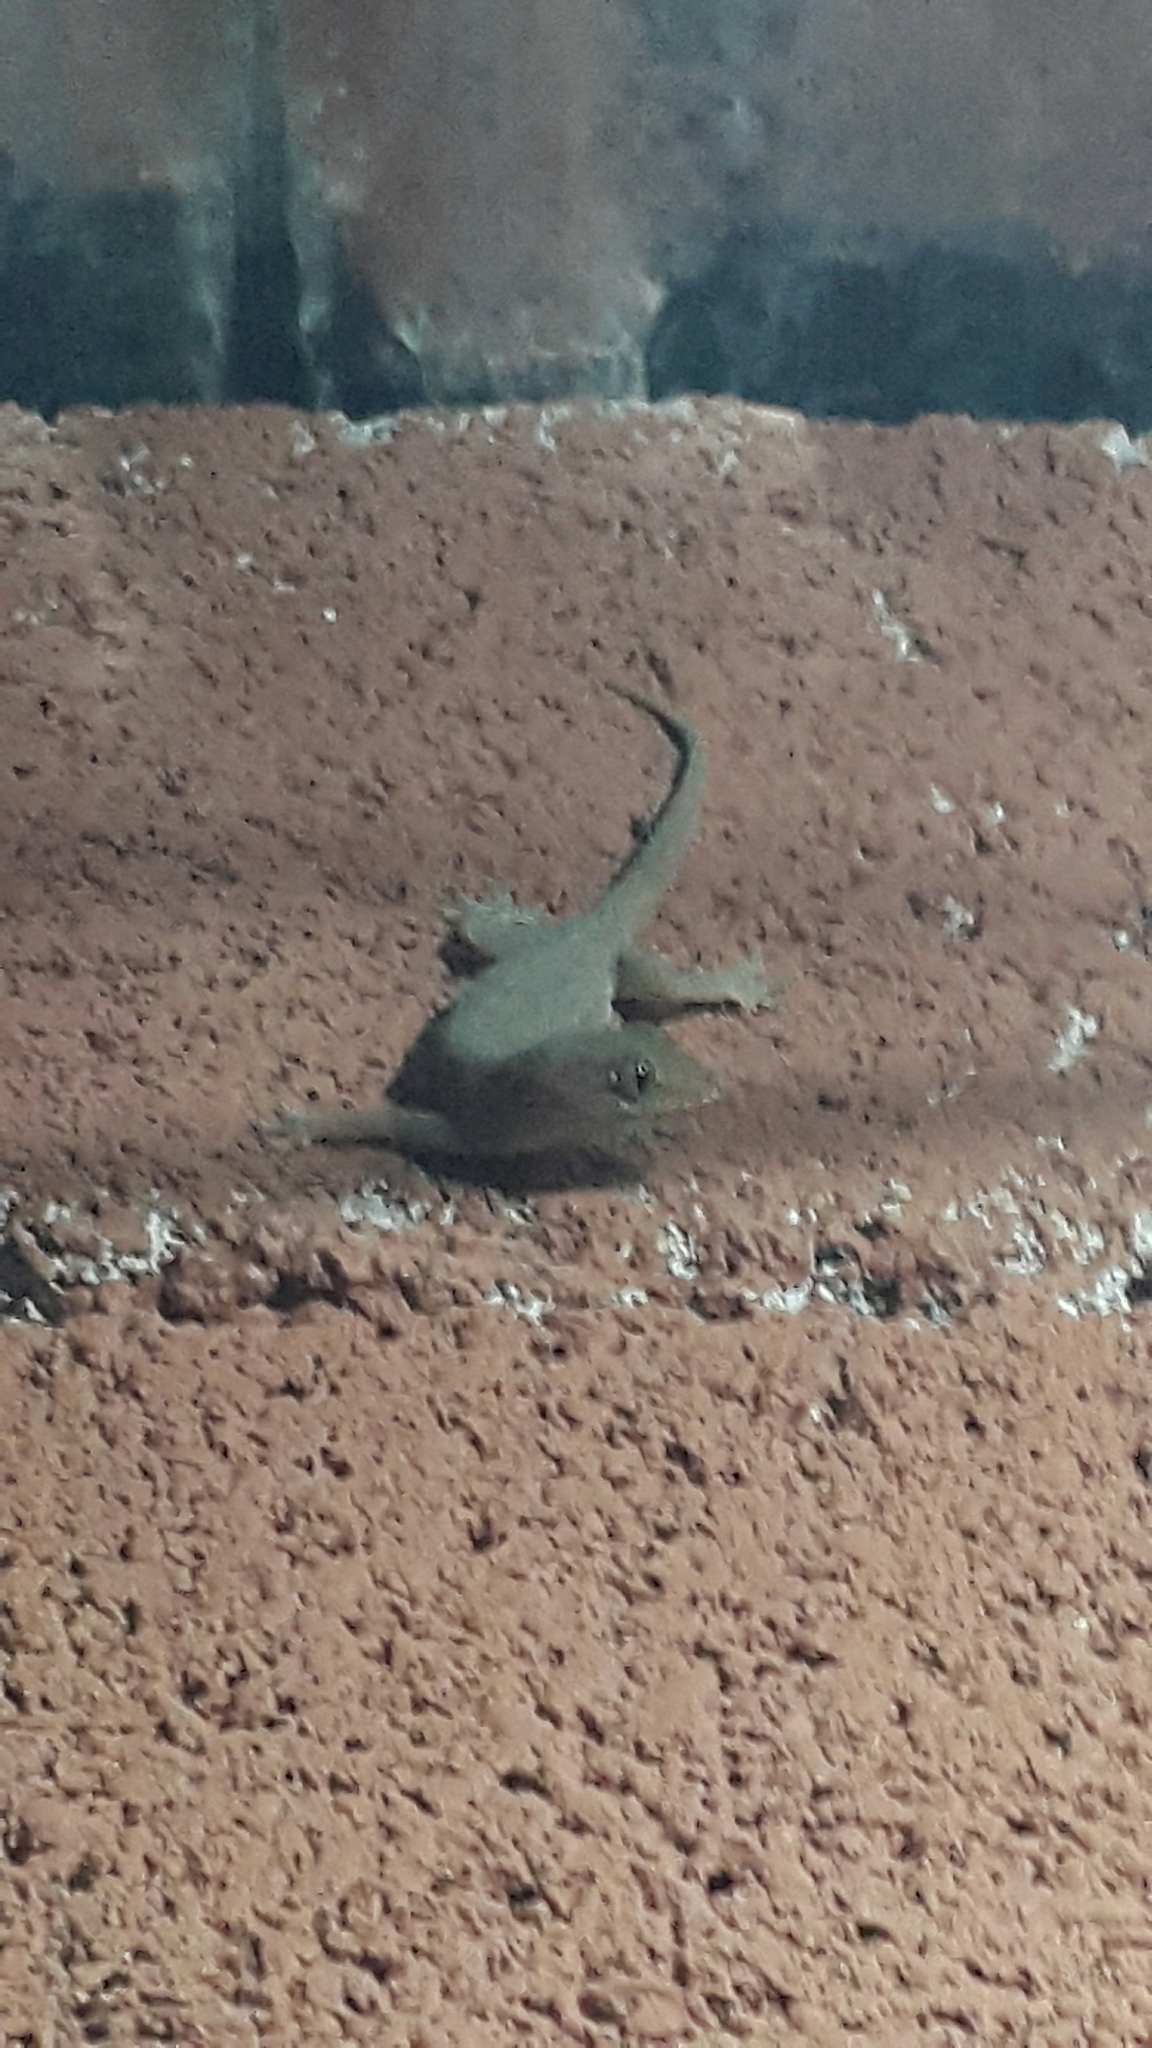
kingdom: Animalia
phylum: Chordata
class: Squamata
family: Gekkonidae
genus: Hemidactylus
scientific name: Hemidactylus frenatus
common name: Common house gecko
